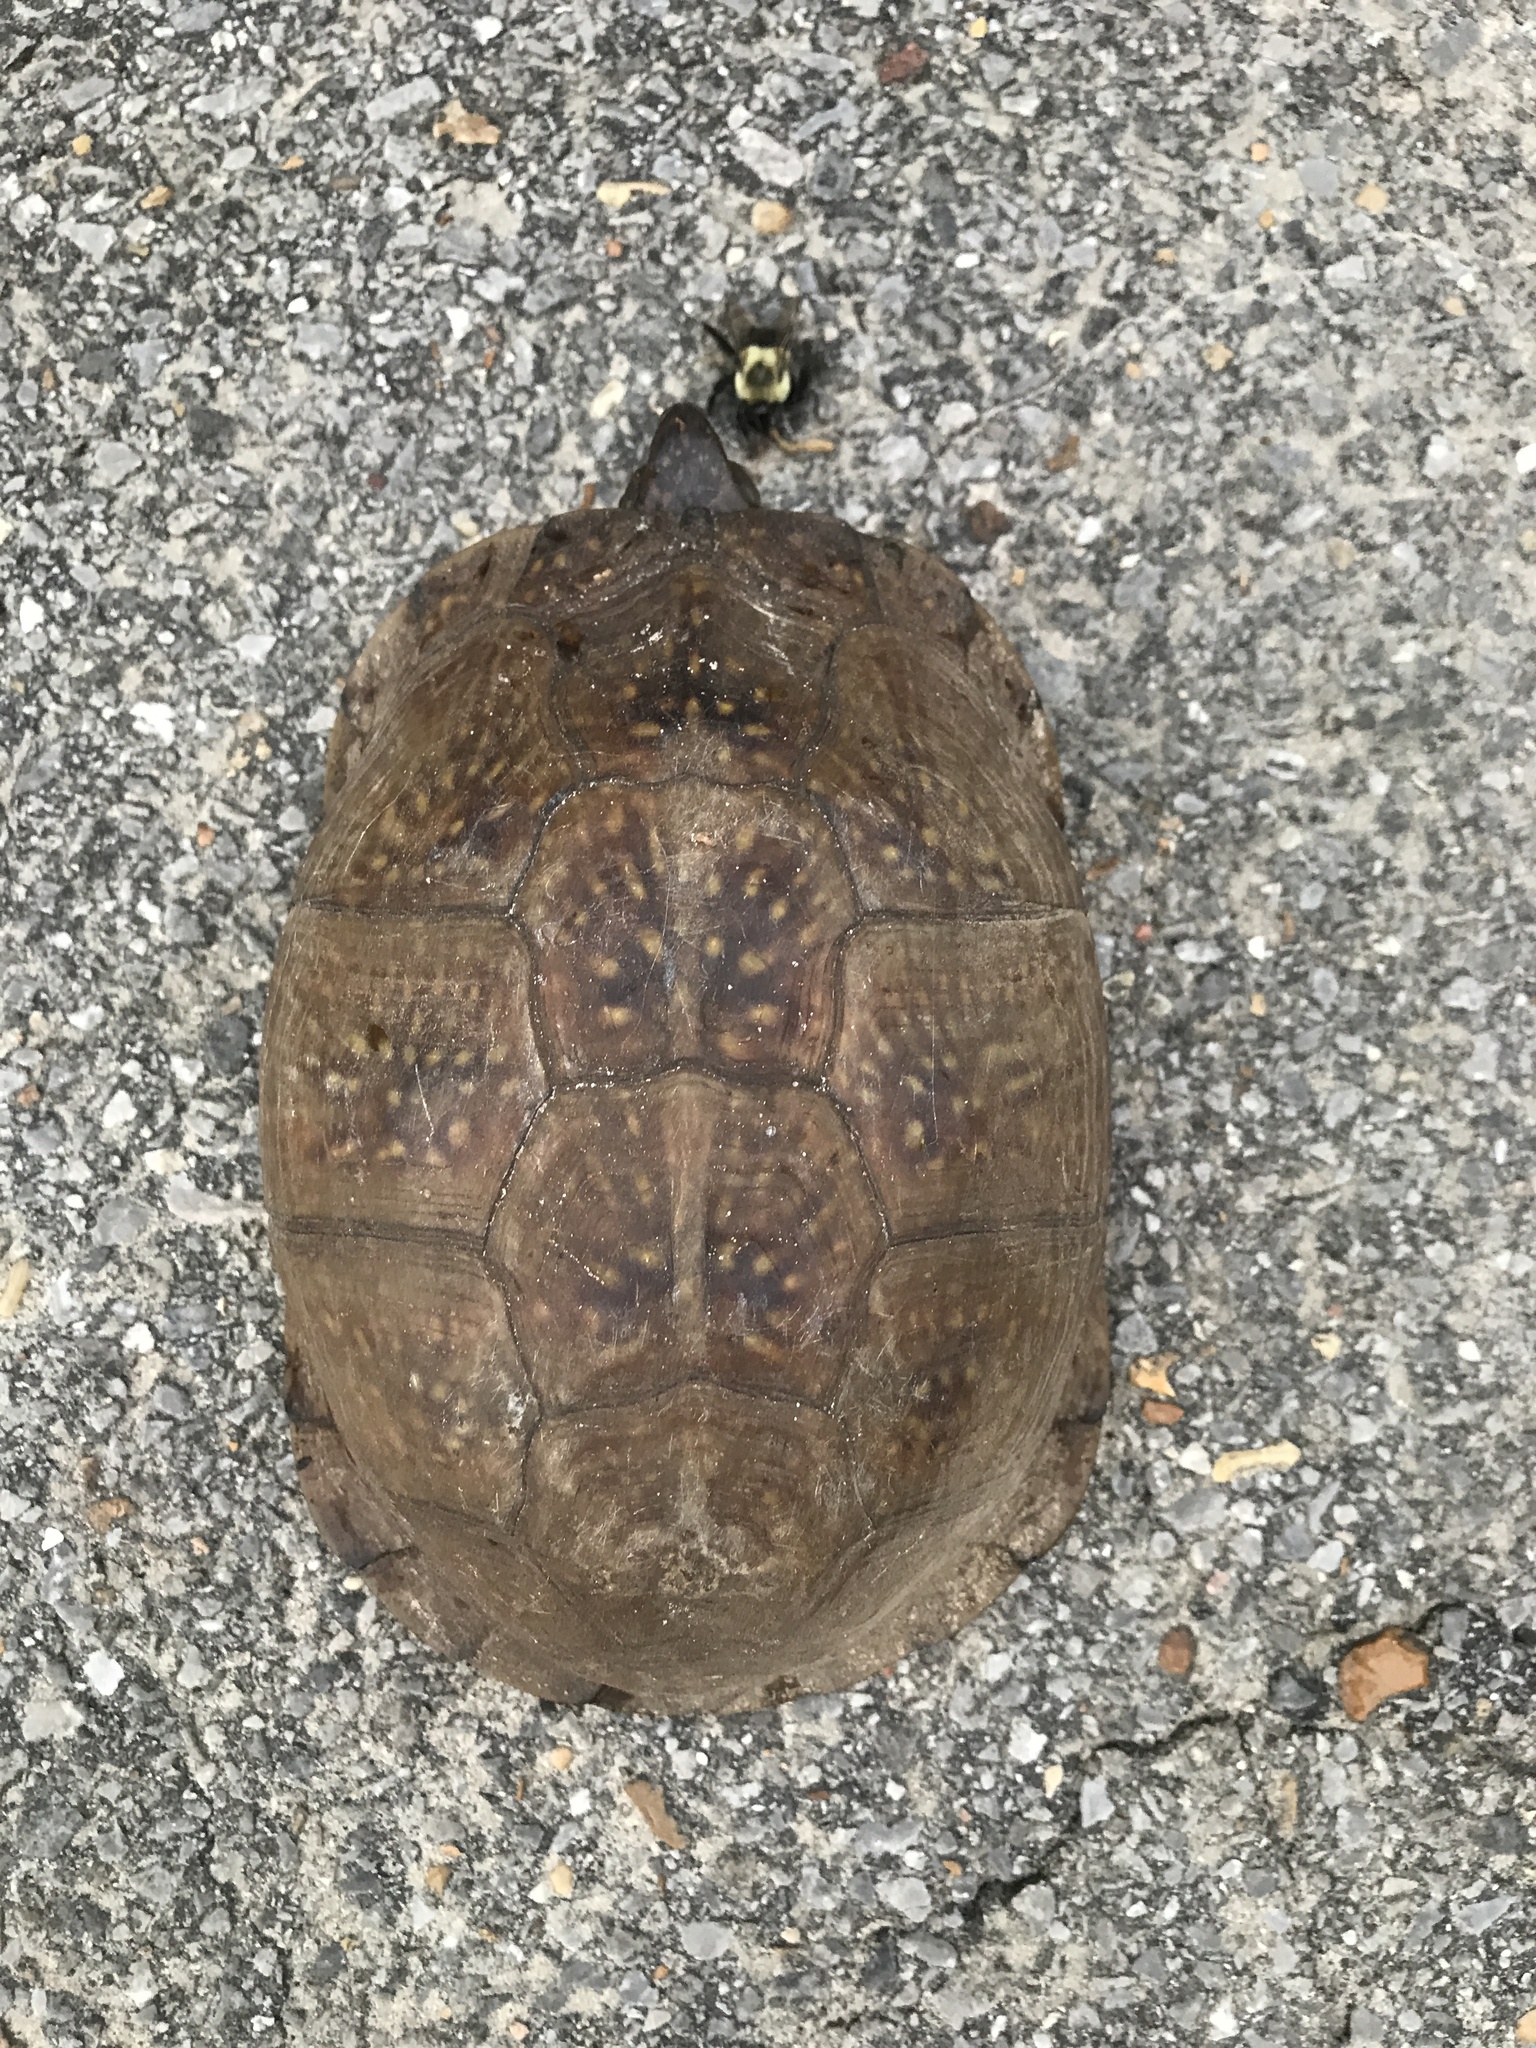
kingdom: Animalia
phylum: Chordata
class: Testudines
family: Emydidae
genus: Terrapene
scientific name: Terrapene carolina
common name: Common box turtle
